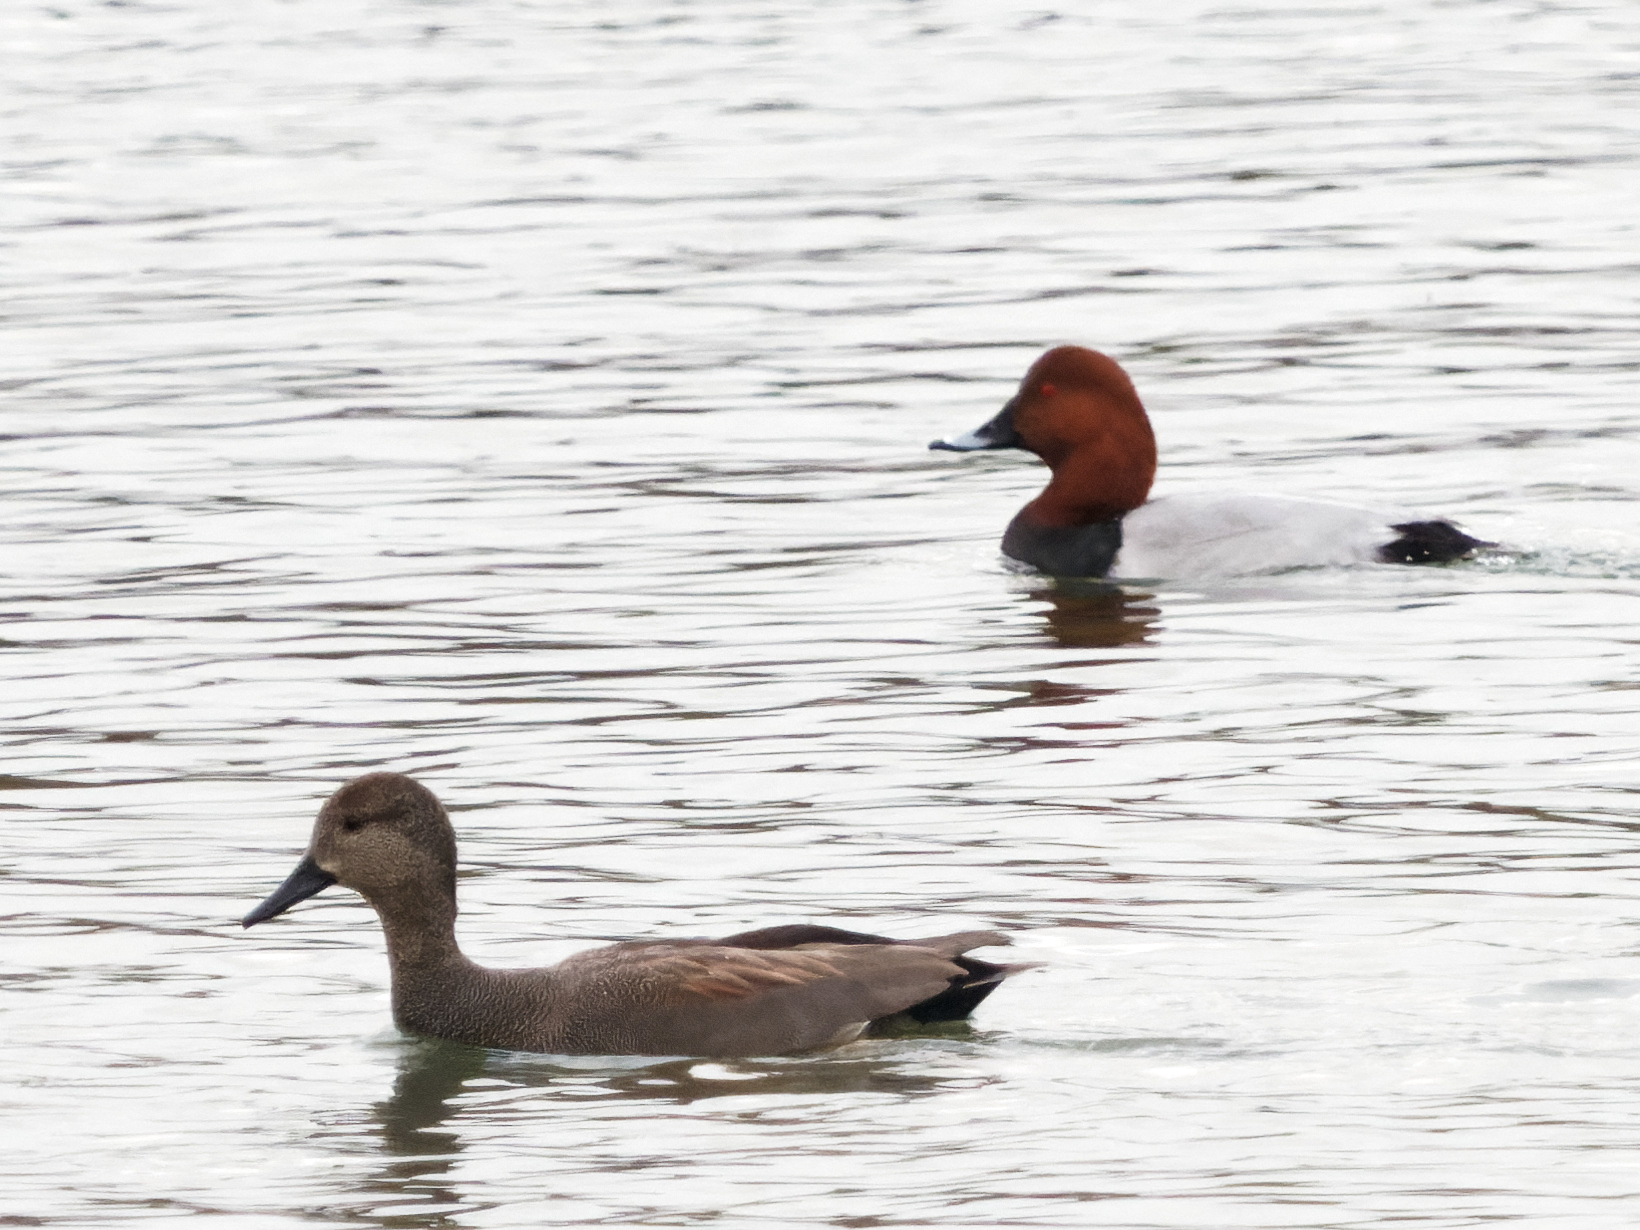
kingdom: Animalia
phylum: Chordata
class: Aves
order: Anseriformes
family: Anatidae
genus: Aythya
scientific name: Aythya ferina
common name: Common pochard
